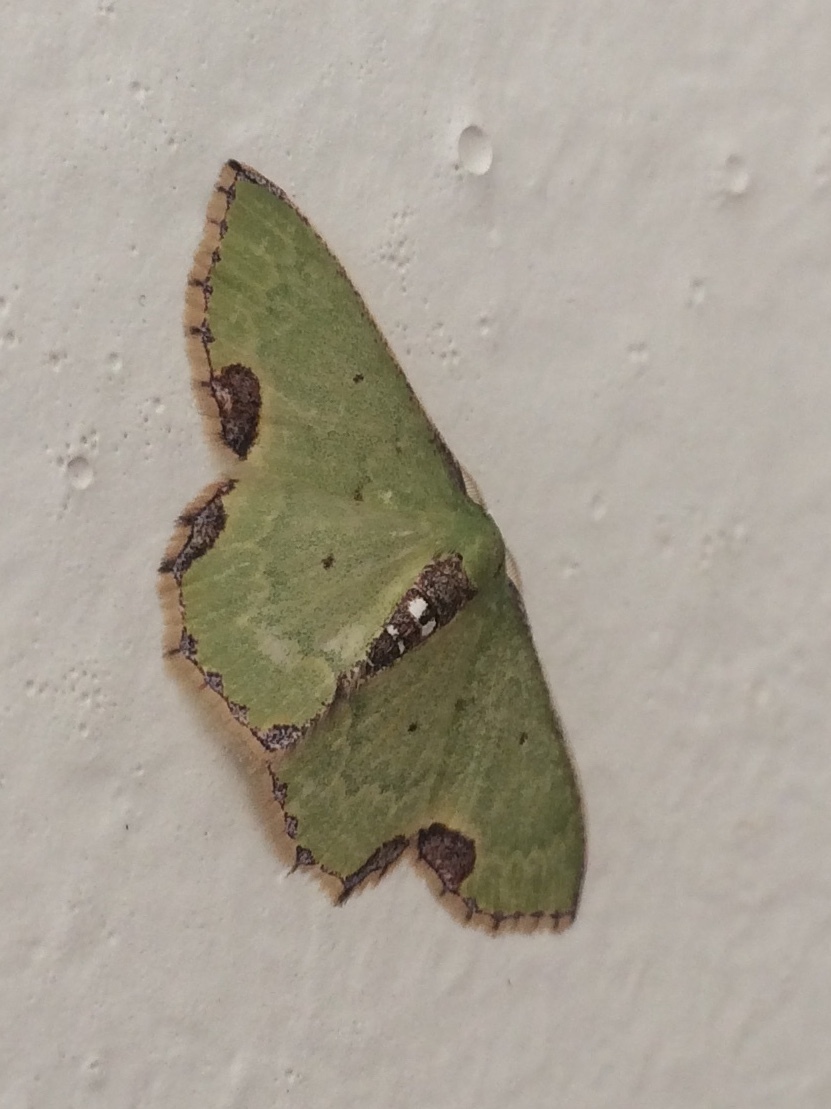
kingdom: Animalia
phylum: Arthropoda
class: Insecta
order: Lepidoptera
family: Geometridae
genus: Spaniocentra
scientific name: Spaniocentra
